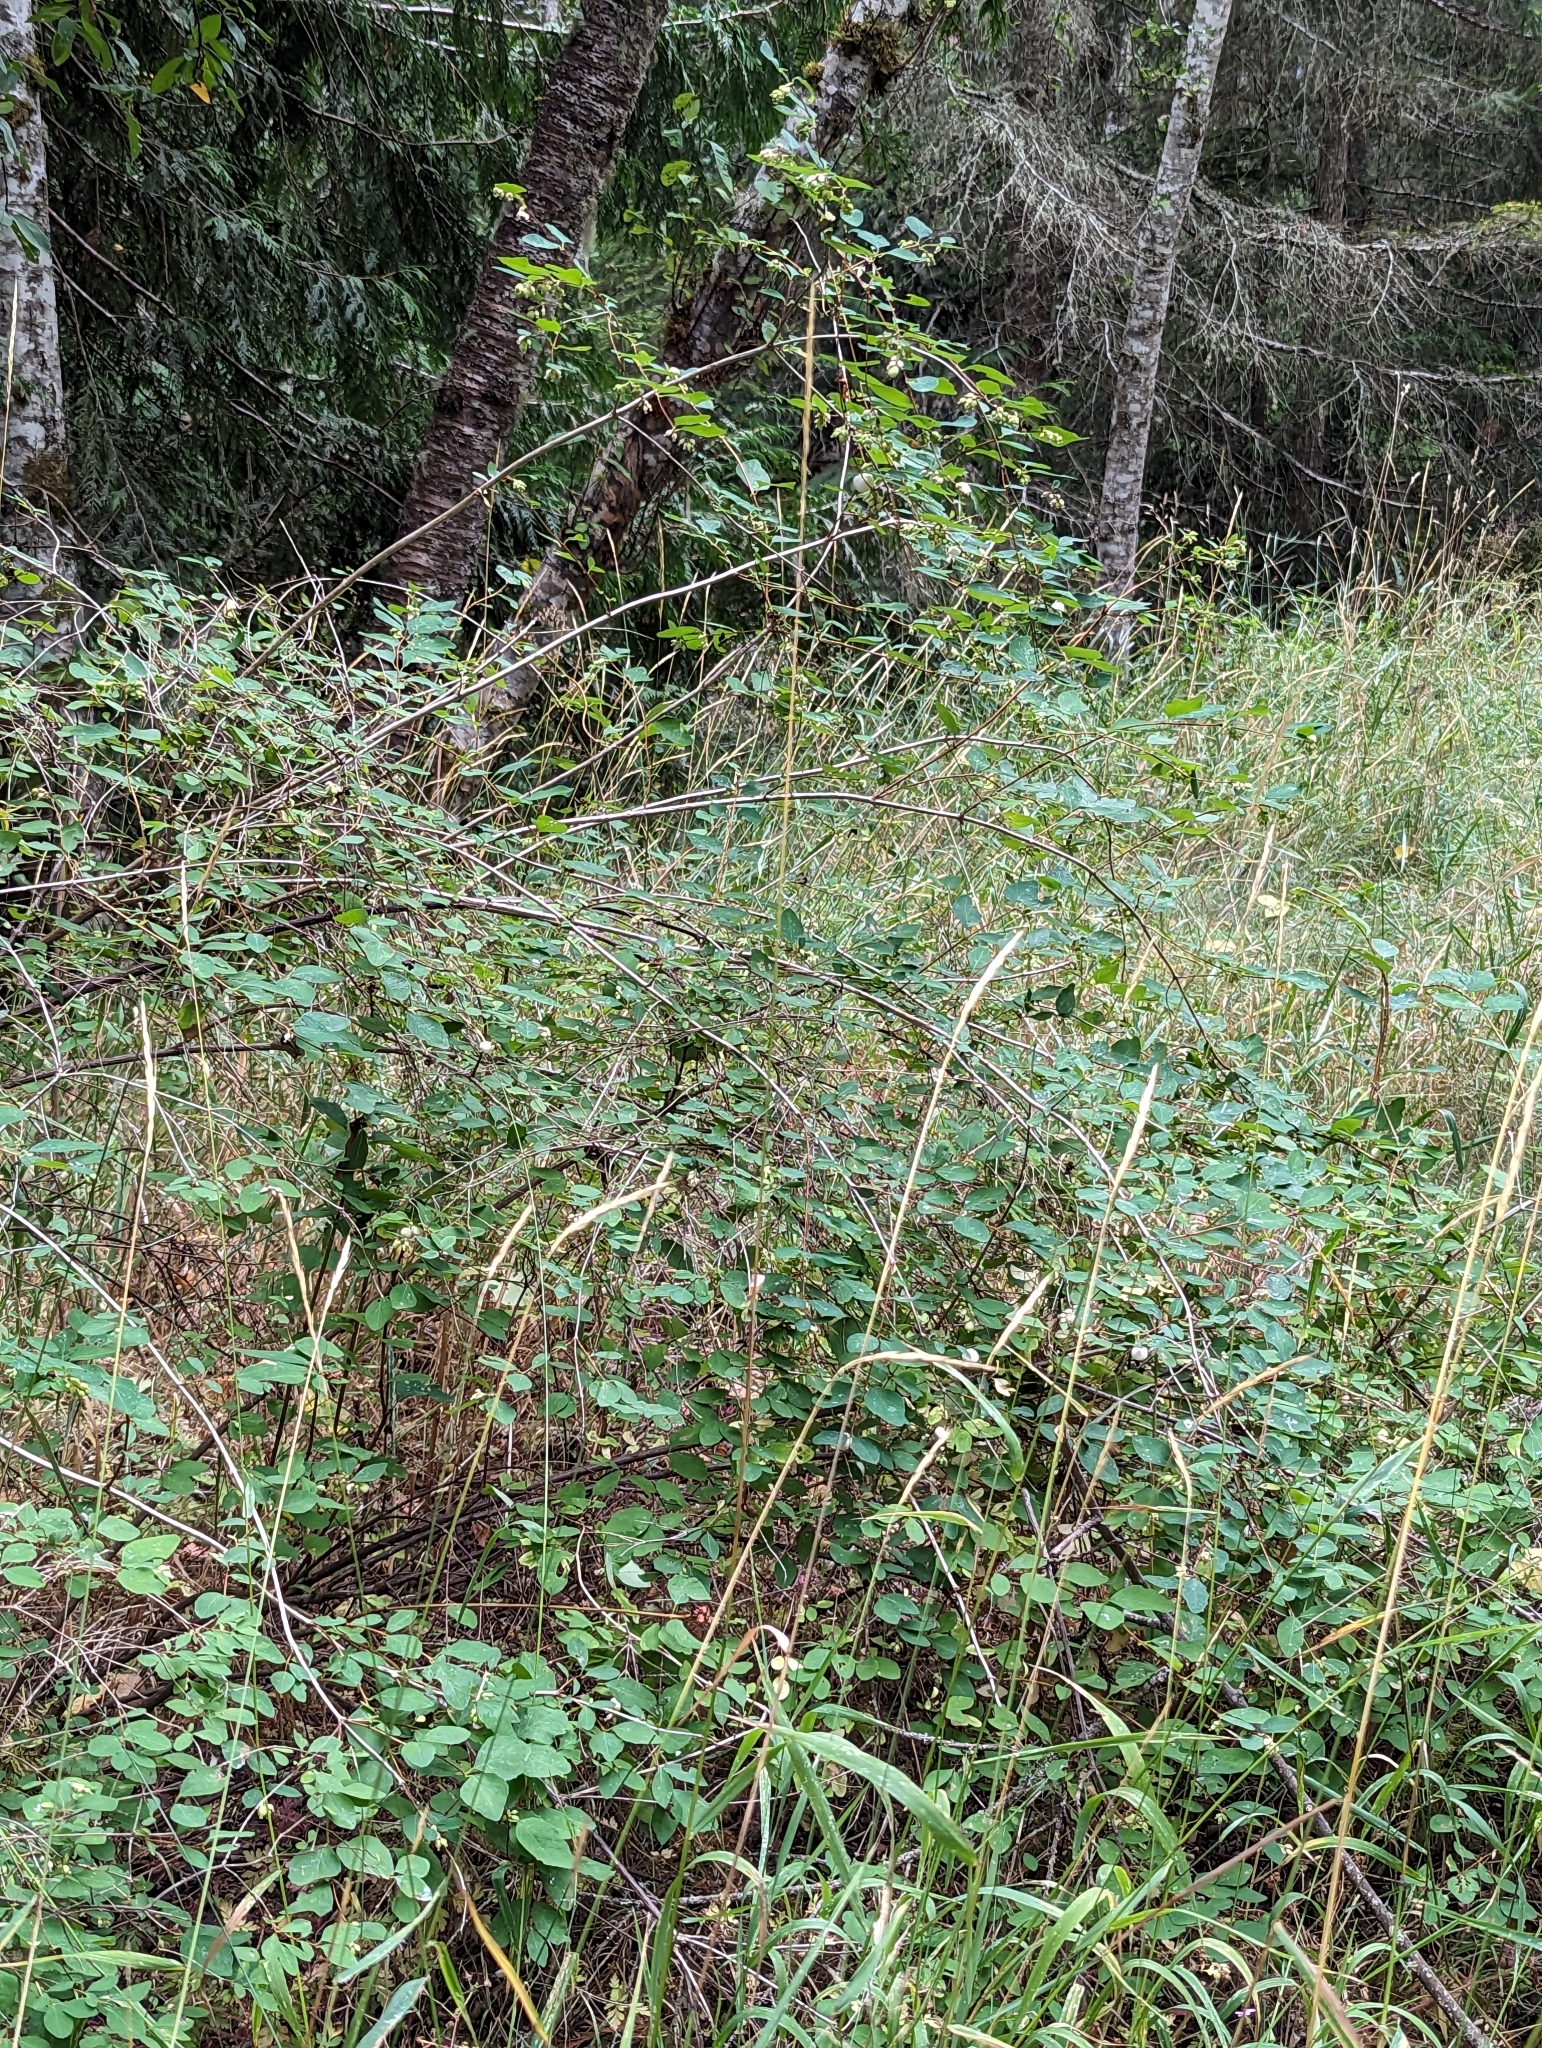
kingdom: Plantae
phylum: Tracheophyta
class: Magnoliopsida
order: Dipsacales
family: Caprifoliaceae
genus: Symphoricarpos
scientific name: Symphoricarpos albus
